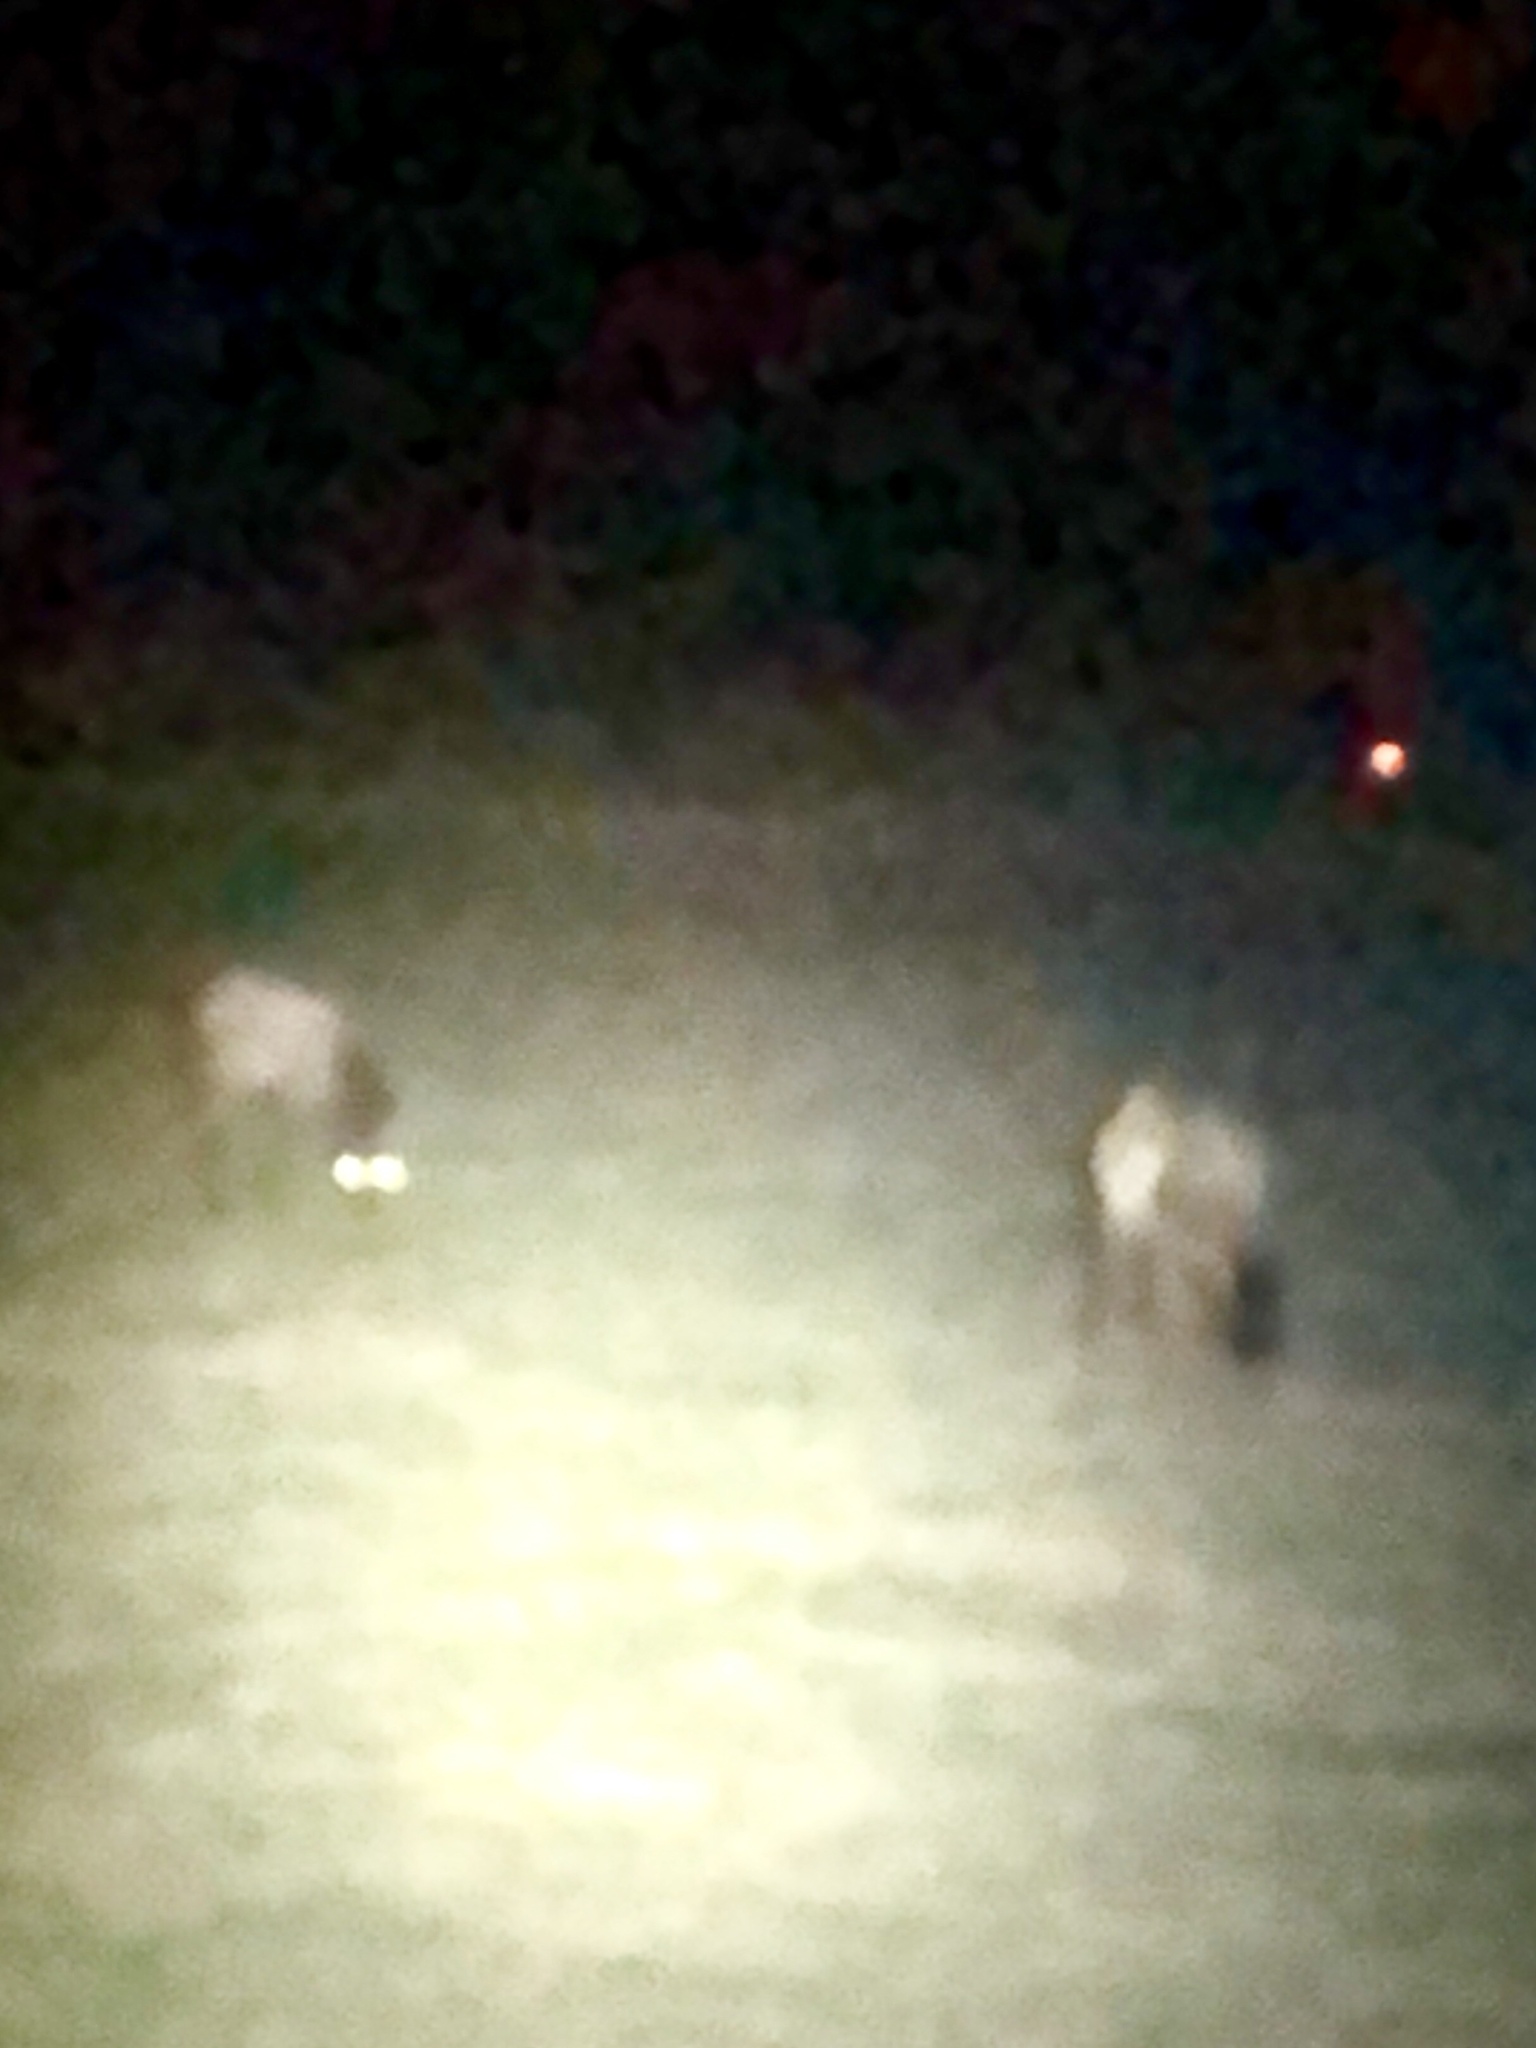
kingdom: Animalia
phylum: Chordata
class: Mammalia
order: Artiodactyla
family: Cervidae
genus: Cervus
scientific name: Cervus elaphus
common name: Red deer
